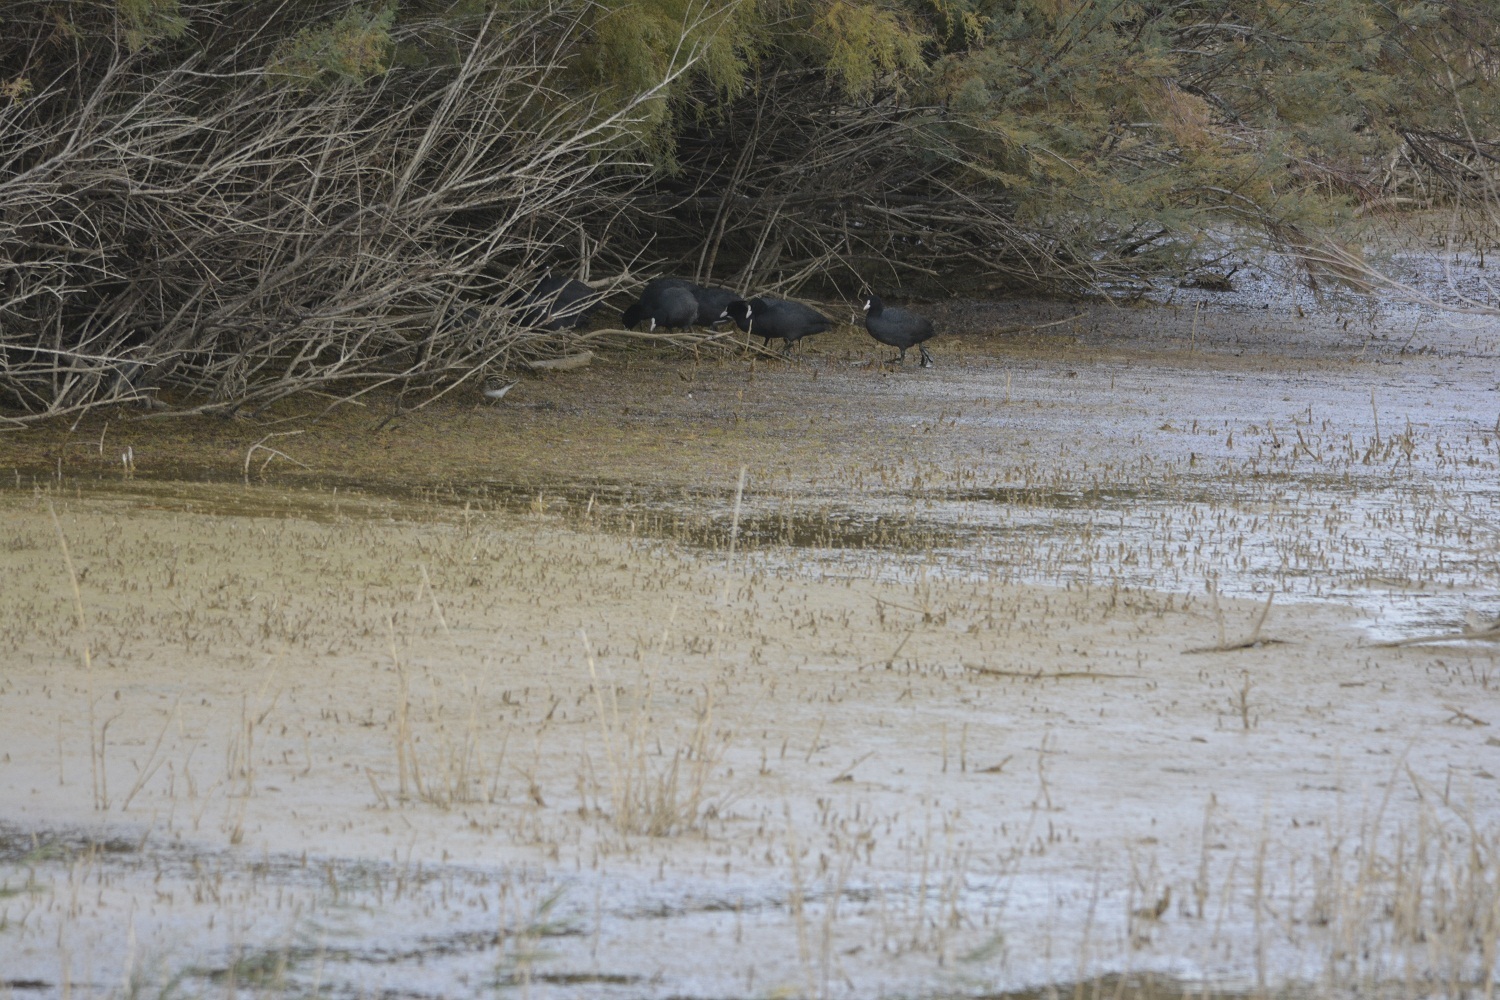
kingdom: Animalia
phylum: Chordata
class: Aves
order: Gruiformes
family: Rallidae
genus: Fulica
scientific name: Fulica atra
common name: Eurasian coot
